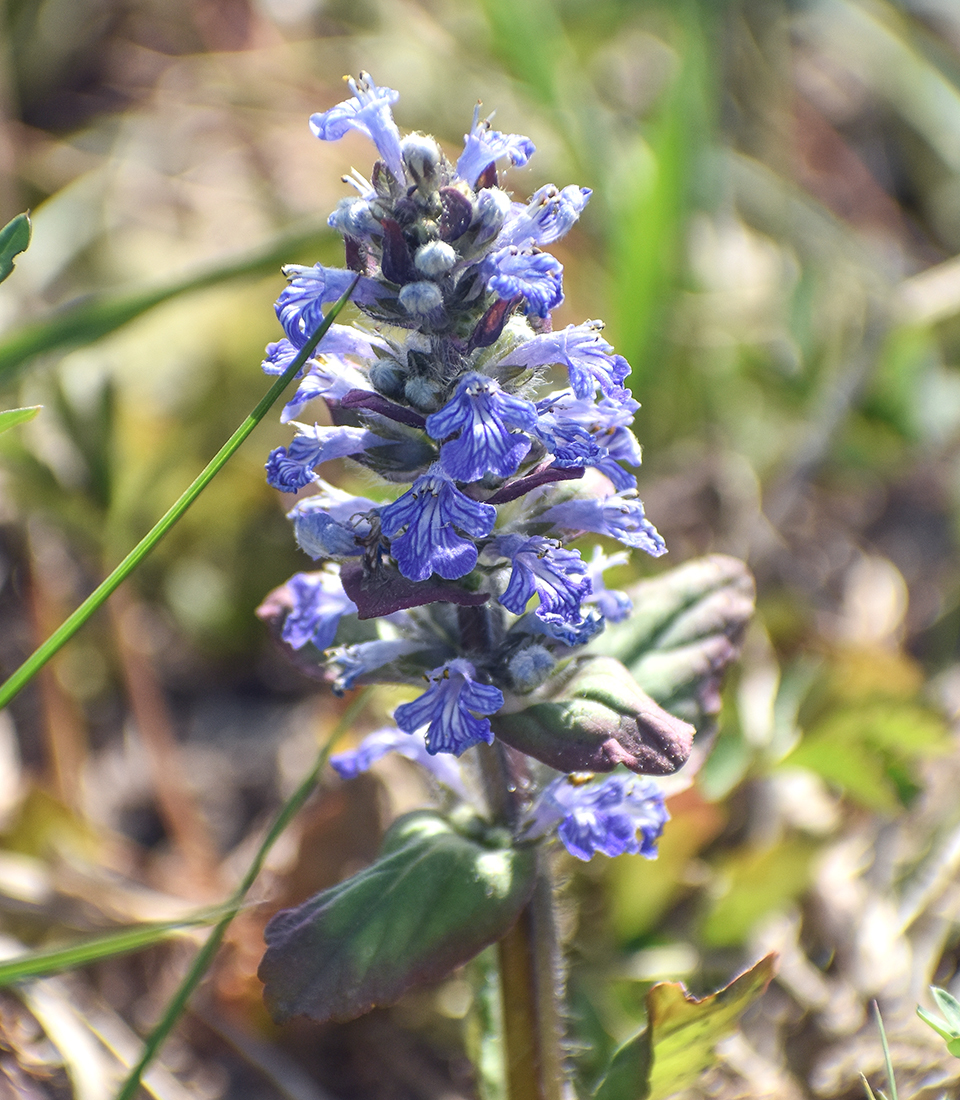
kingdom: Plantae
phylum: Tracheophyta
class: Magnoliopsida
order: Lamiales
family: Lamiaceae
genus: Ajuga
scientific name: Ajuga reptans
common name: Bugle
